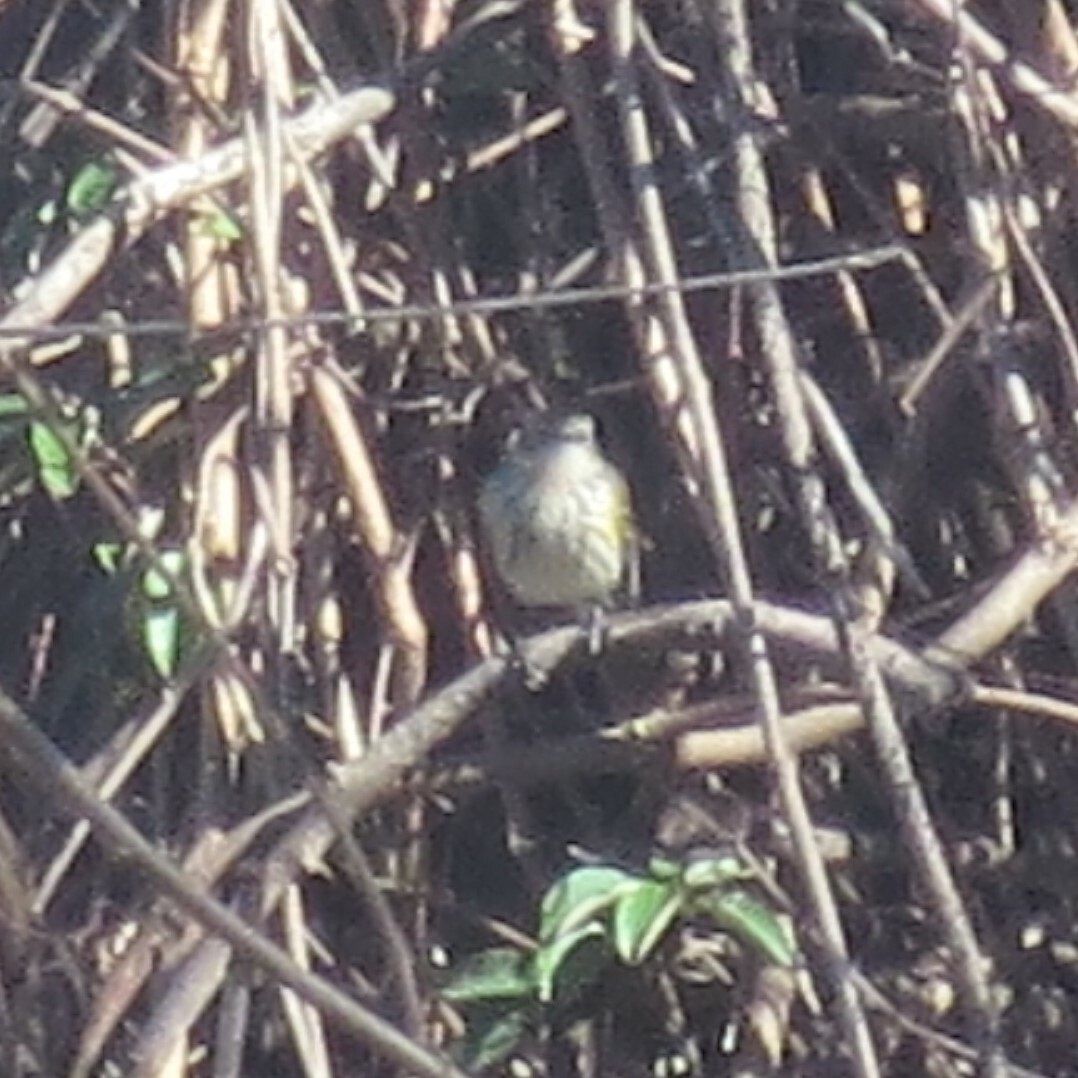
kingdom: Animalia
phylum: Chordata
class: Aves
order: Passeriformes
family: Parulidae
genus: Setophaga
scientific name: Setophaga coronata
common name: Myrtle warbler
